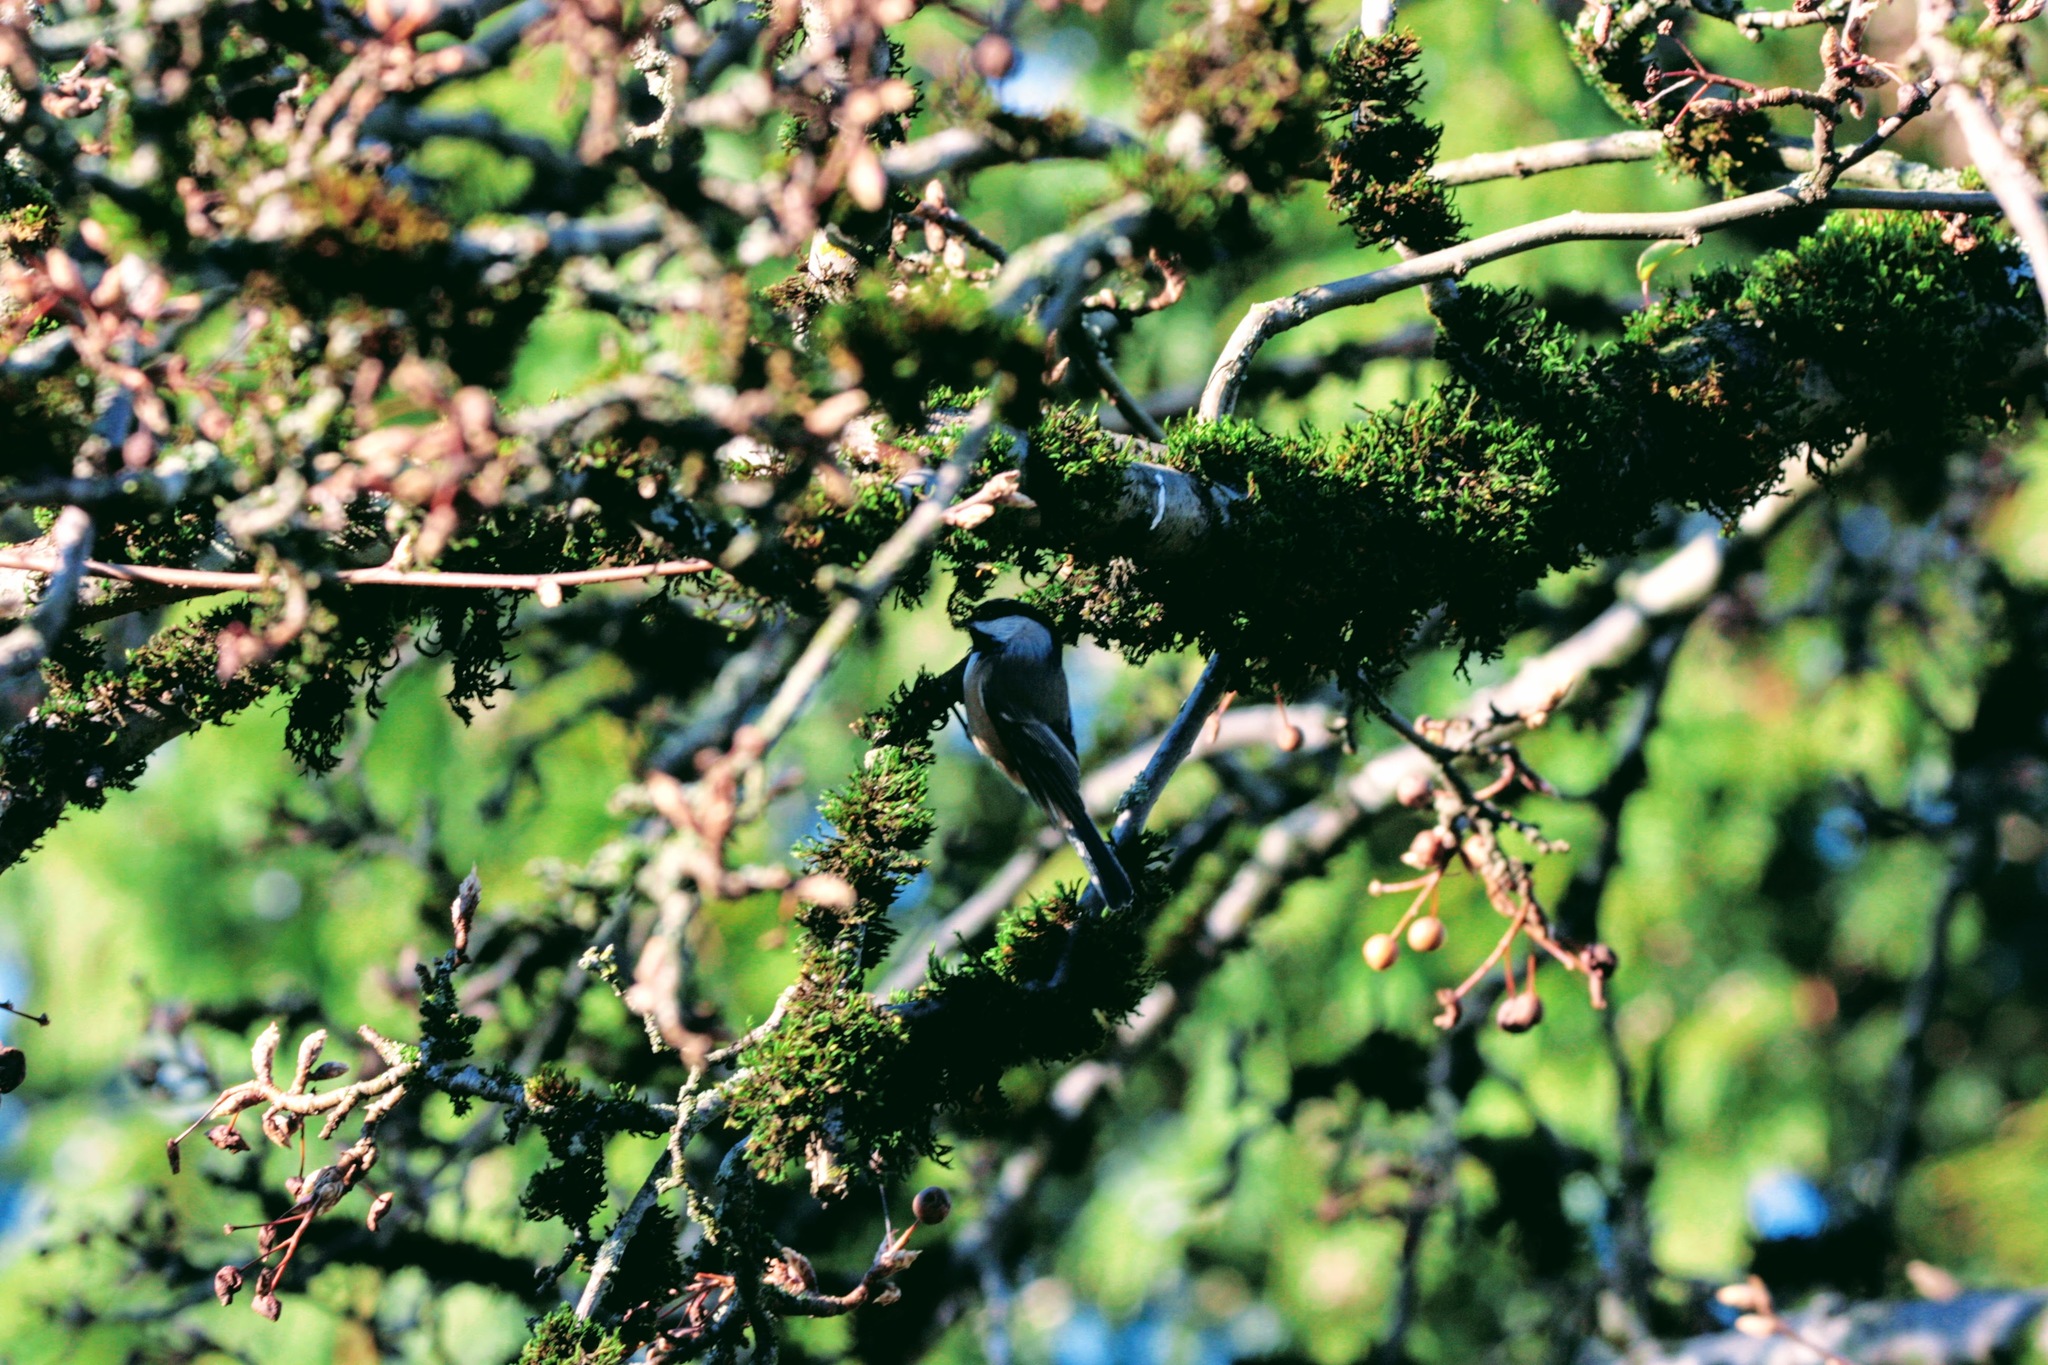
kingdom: Animalia
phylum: Chordata
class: Aves
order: Passeriformes
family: Paridae
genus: Poecile
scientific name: Poecile atricapillus
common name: Black-capped chickadee
